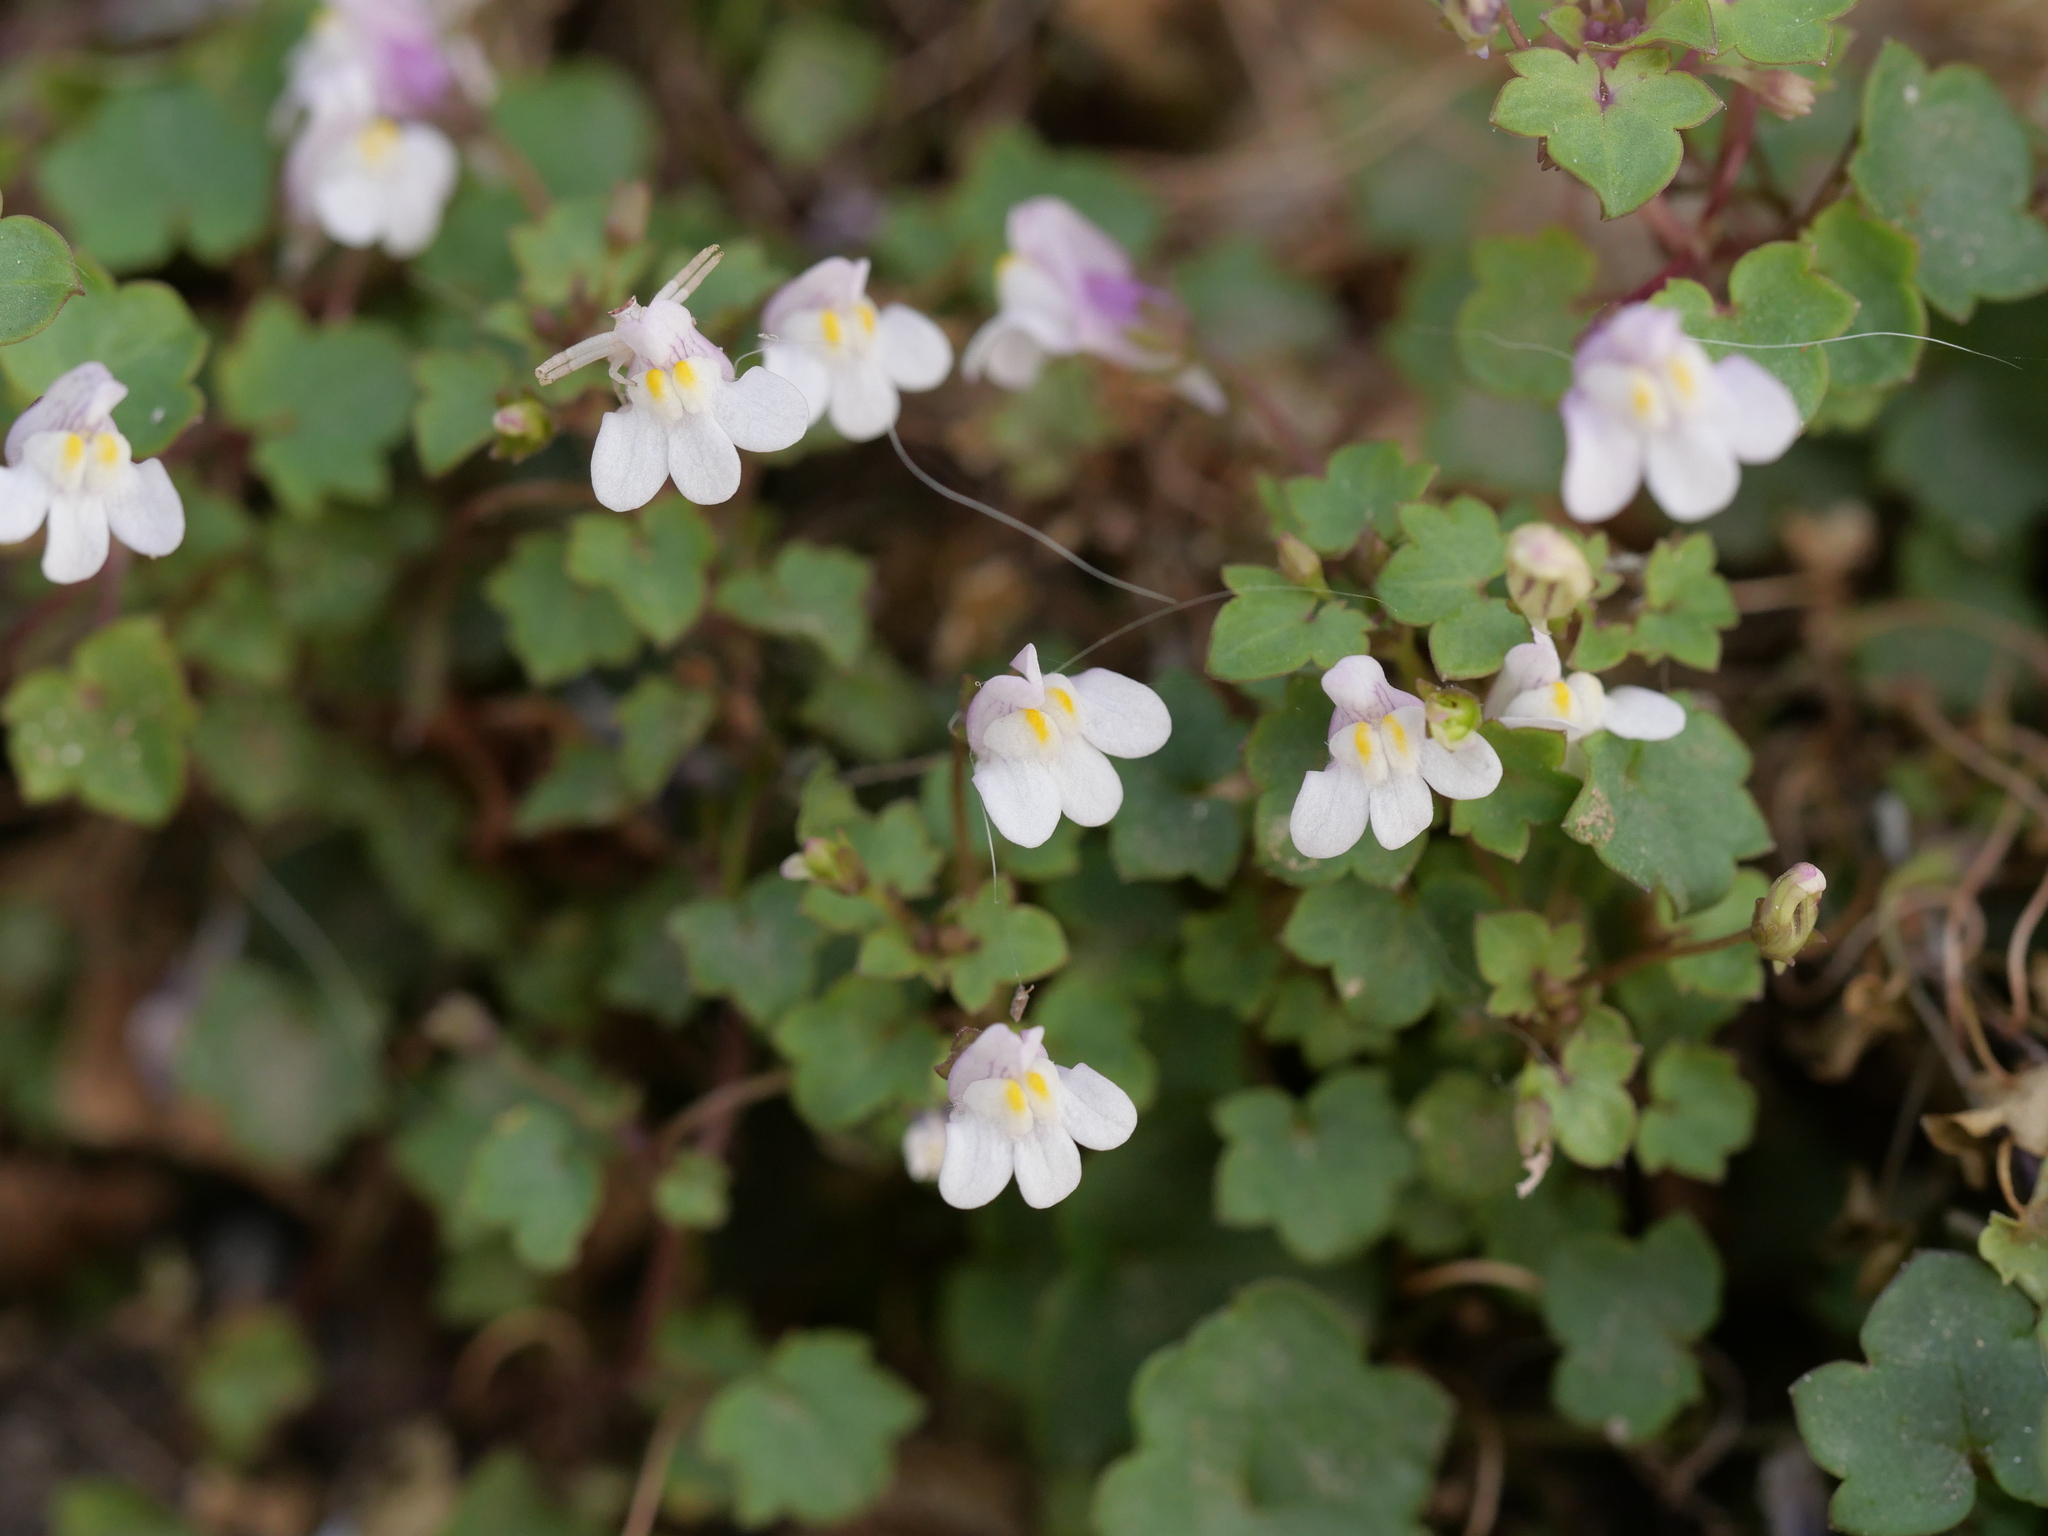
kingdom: Plantae
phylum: Tracheophyta
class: Magnoliopsida
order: Lamiales
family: Plantaginaceae
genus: Cymbalaria
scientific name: Cymbalaria muralis
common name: Ivy-leaved toadflax
